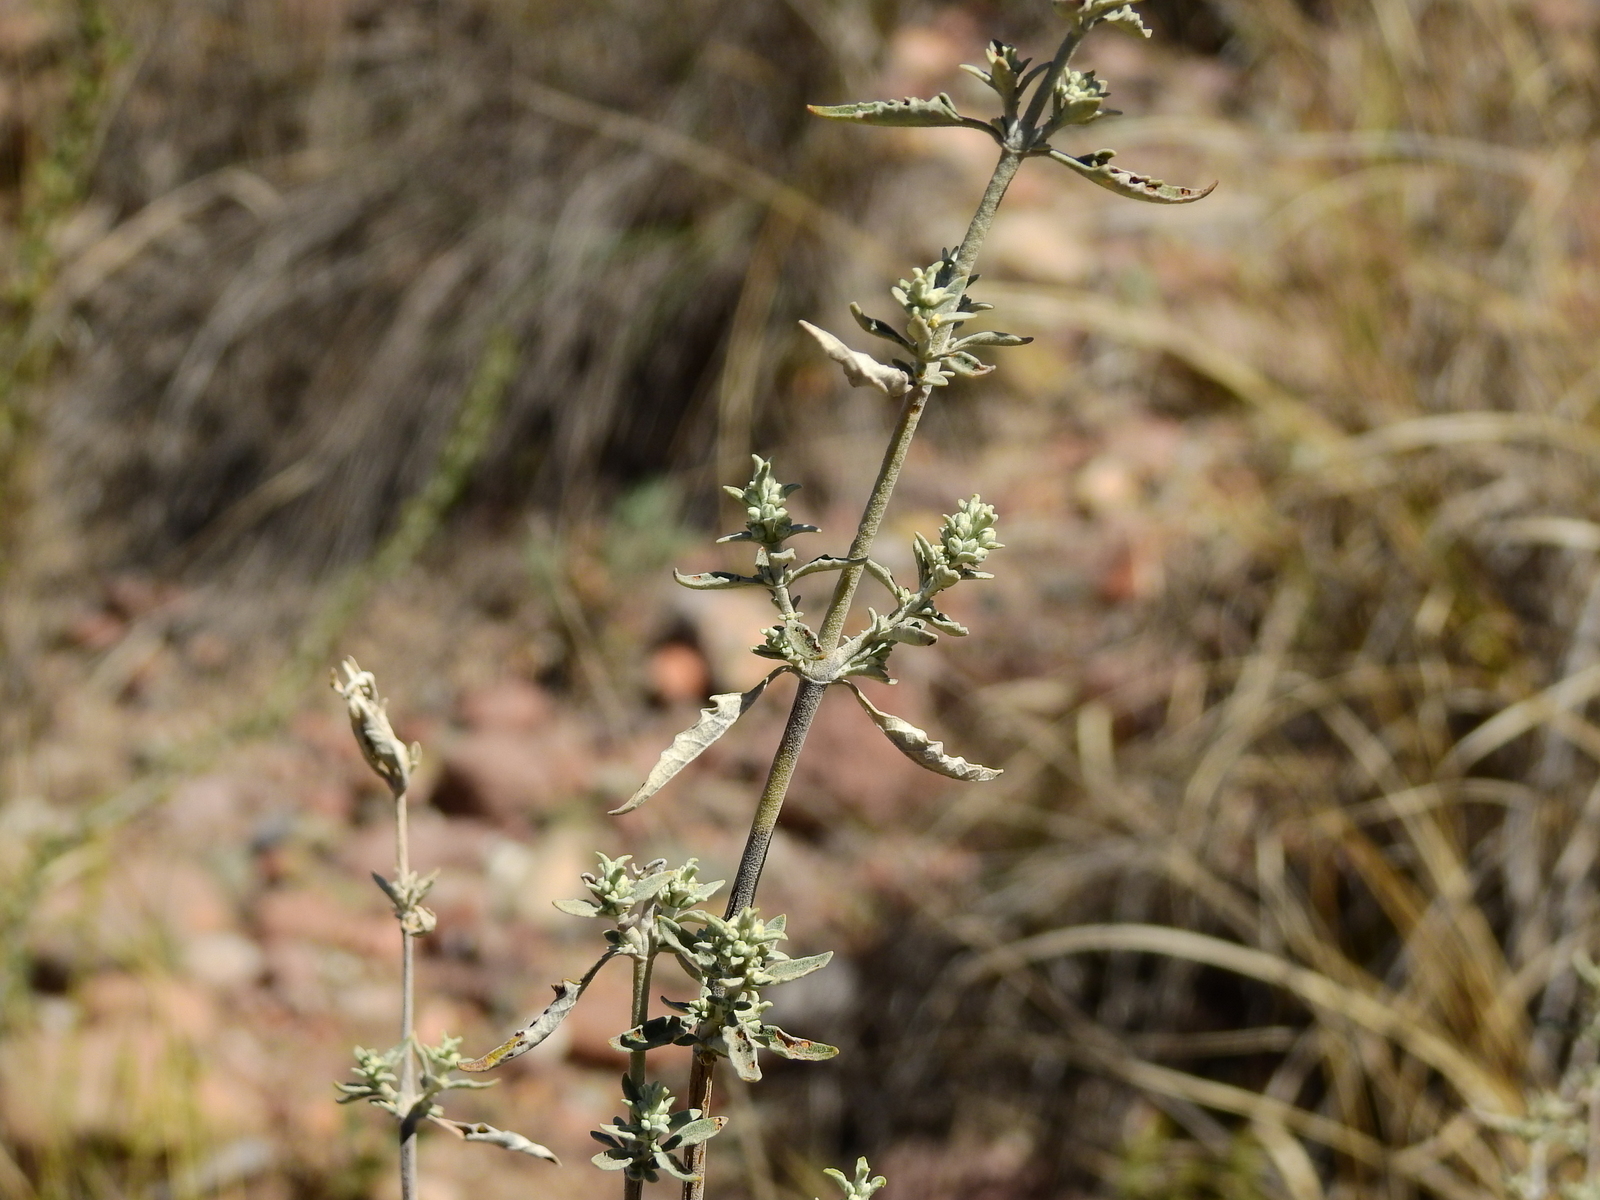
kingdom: Plantae
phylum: Tracheophyta
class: Magnoliopsida
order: Lamiales
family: Scrophulariaceae
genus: Buddleja
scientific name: Buddleja mendozensis
